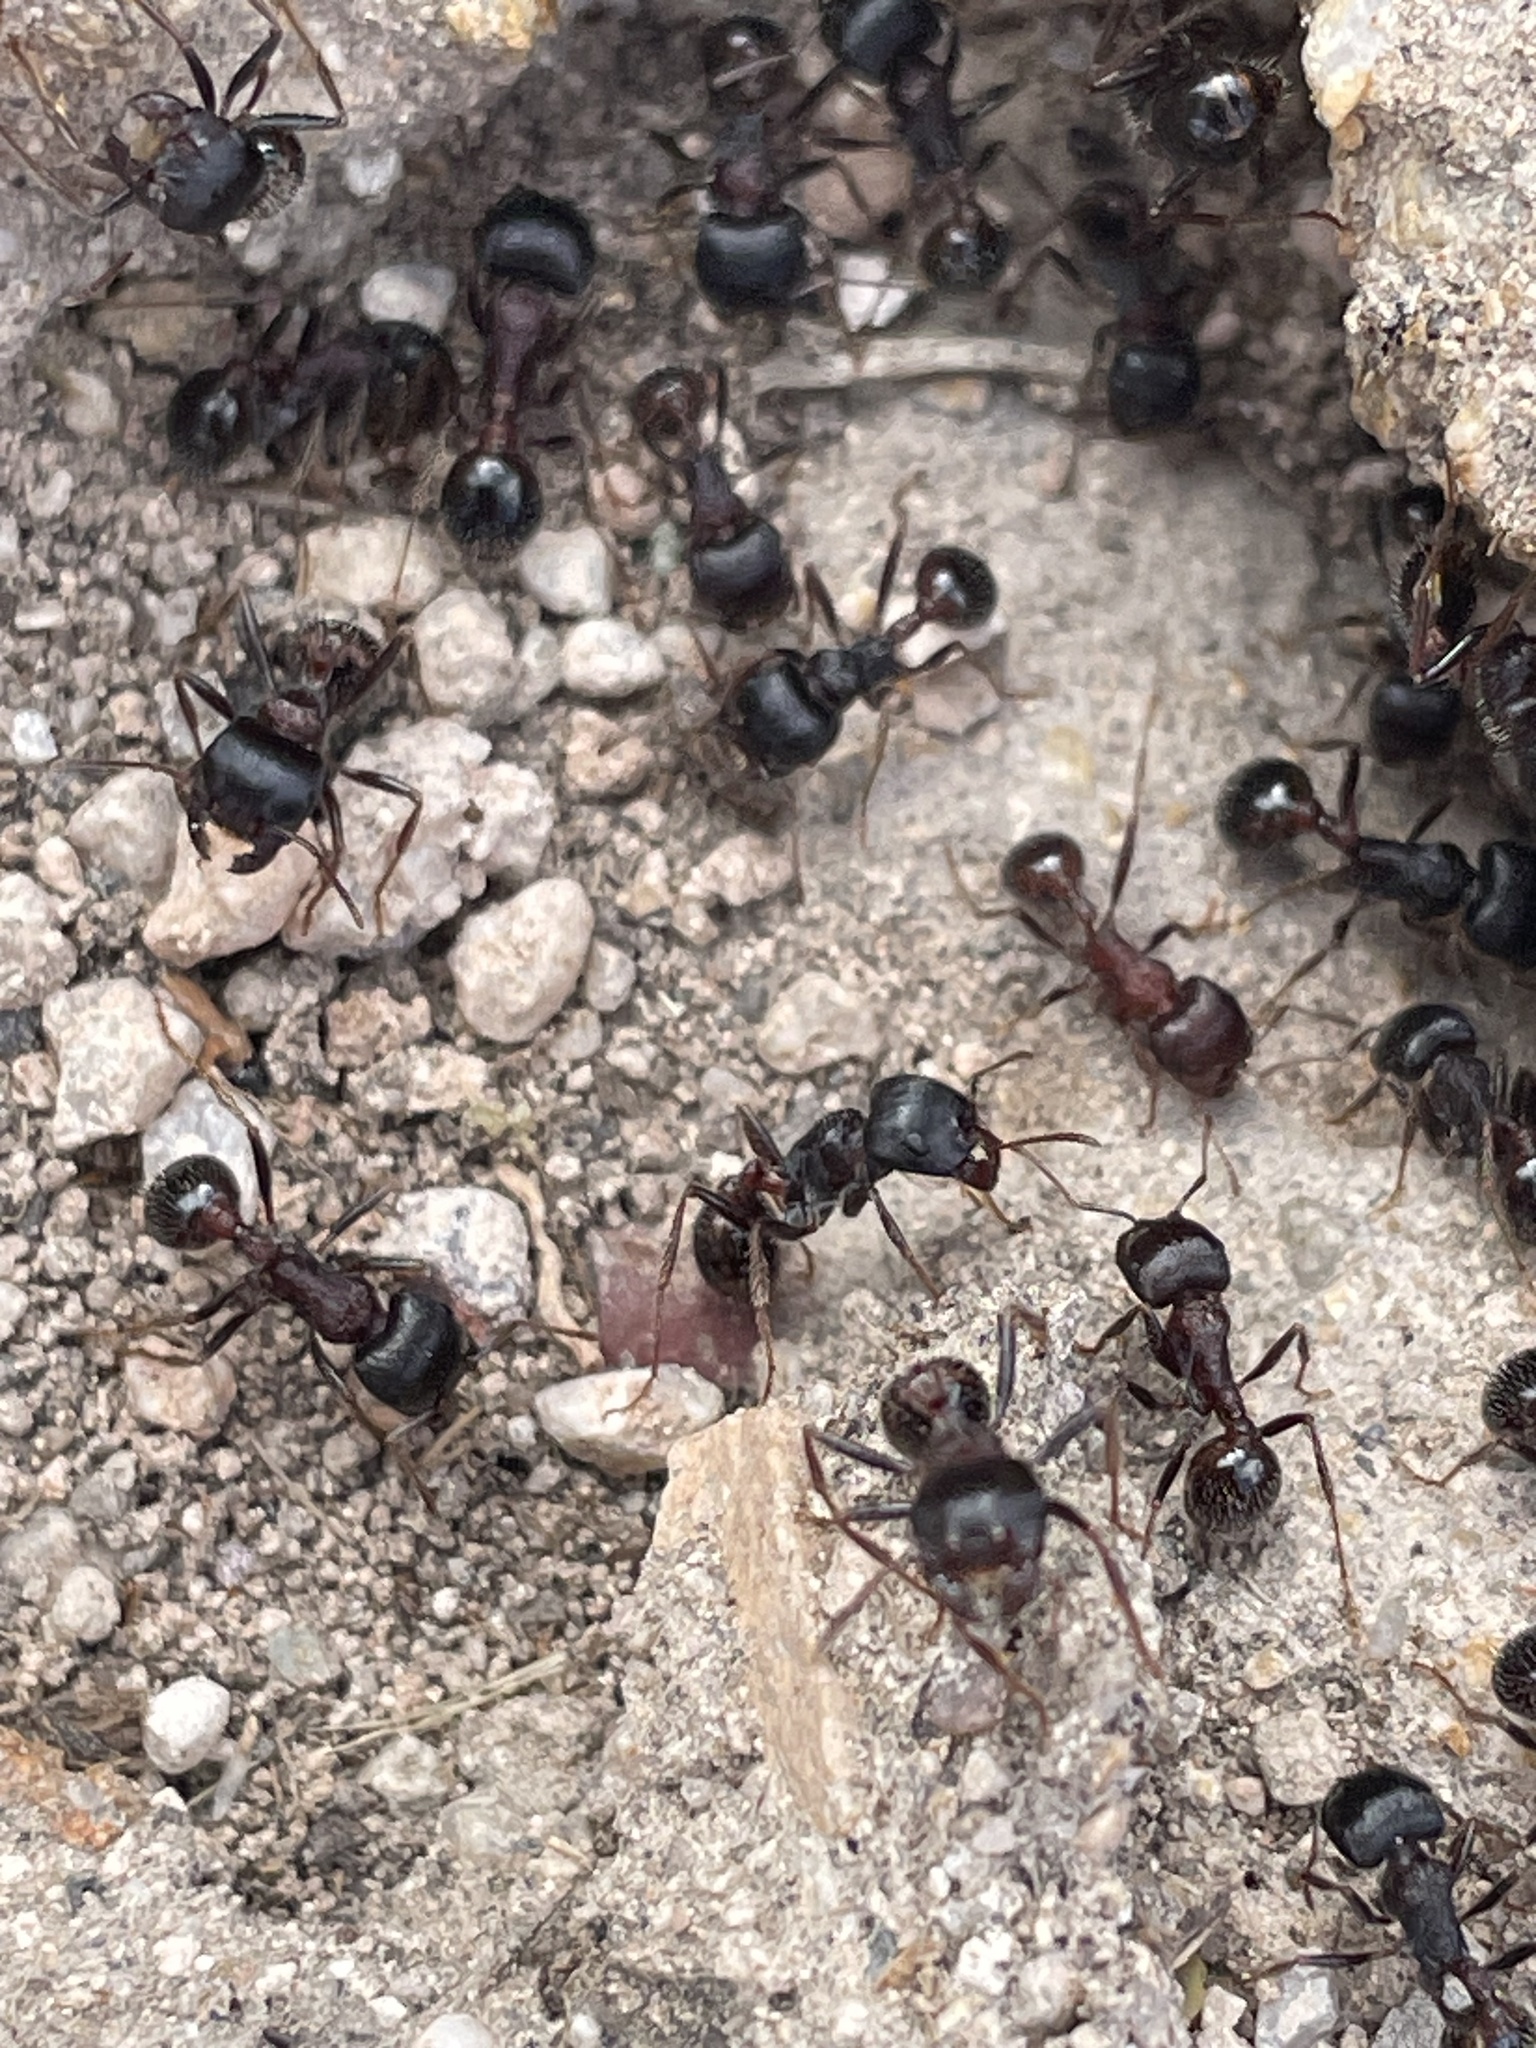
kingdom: Animalia
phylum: Arthropoda
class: Insecta
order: Hymenoptera
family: Formicidae
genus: Pogonomyrmex
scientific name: Pogonomyrmex rugosus
